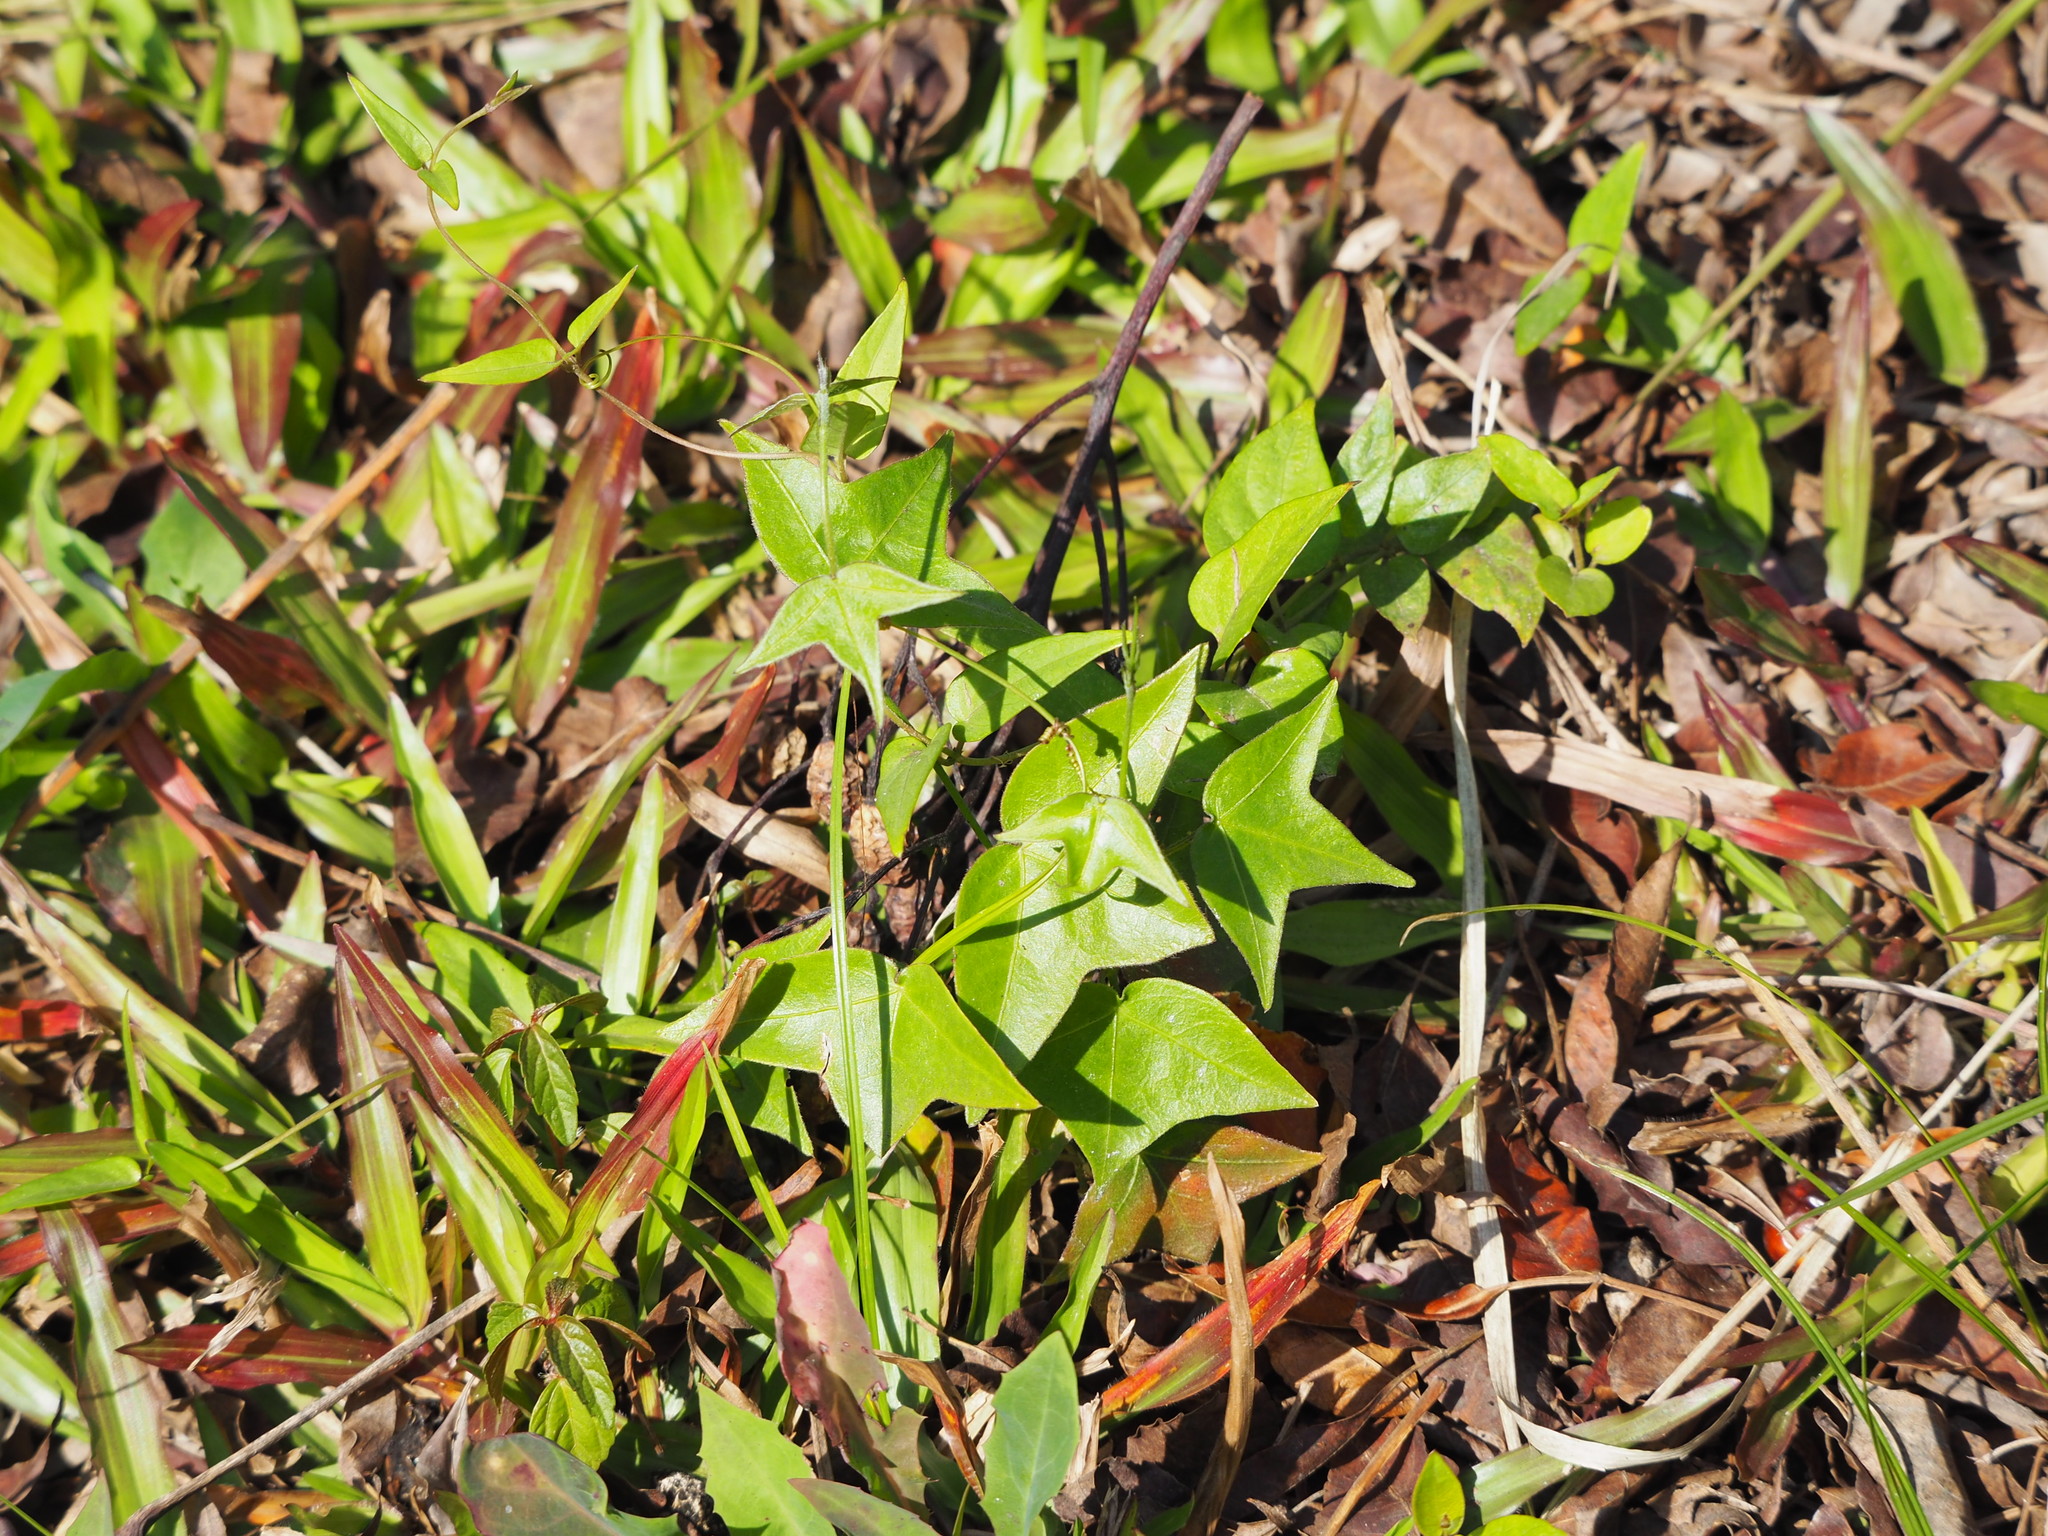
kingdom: Plantae
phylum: Tracheophyta
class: Magnoliopsida
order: Malpighiales
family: Passifloraceae
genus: Passiflora
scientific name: Passiflora suberosa
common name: Wild passionfruit
